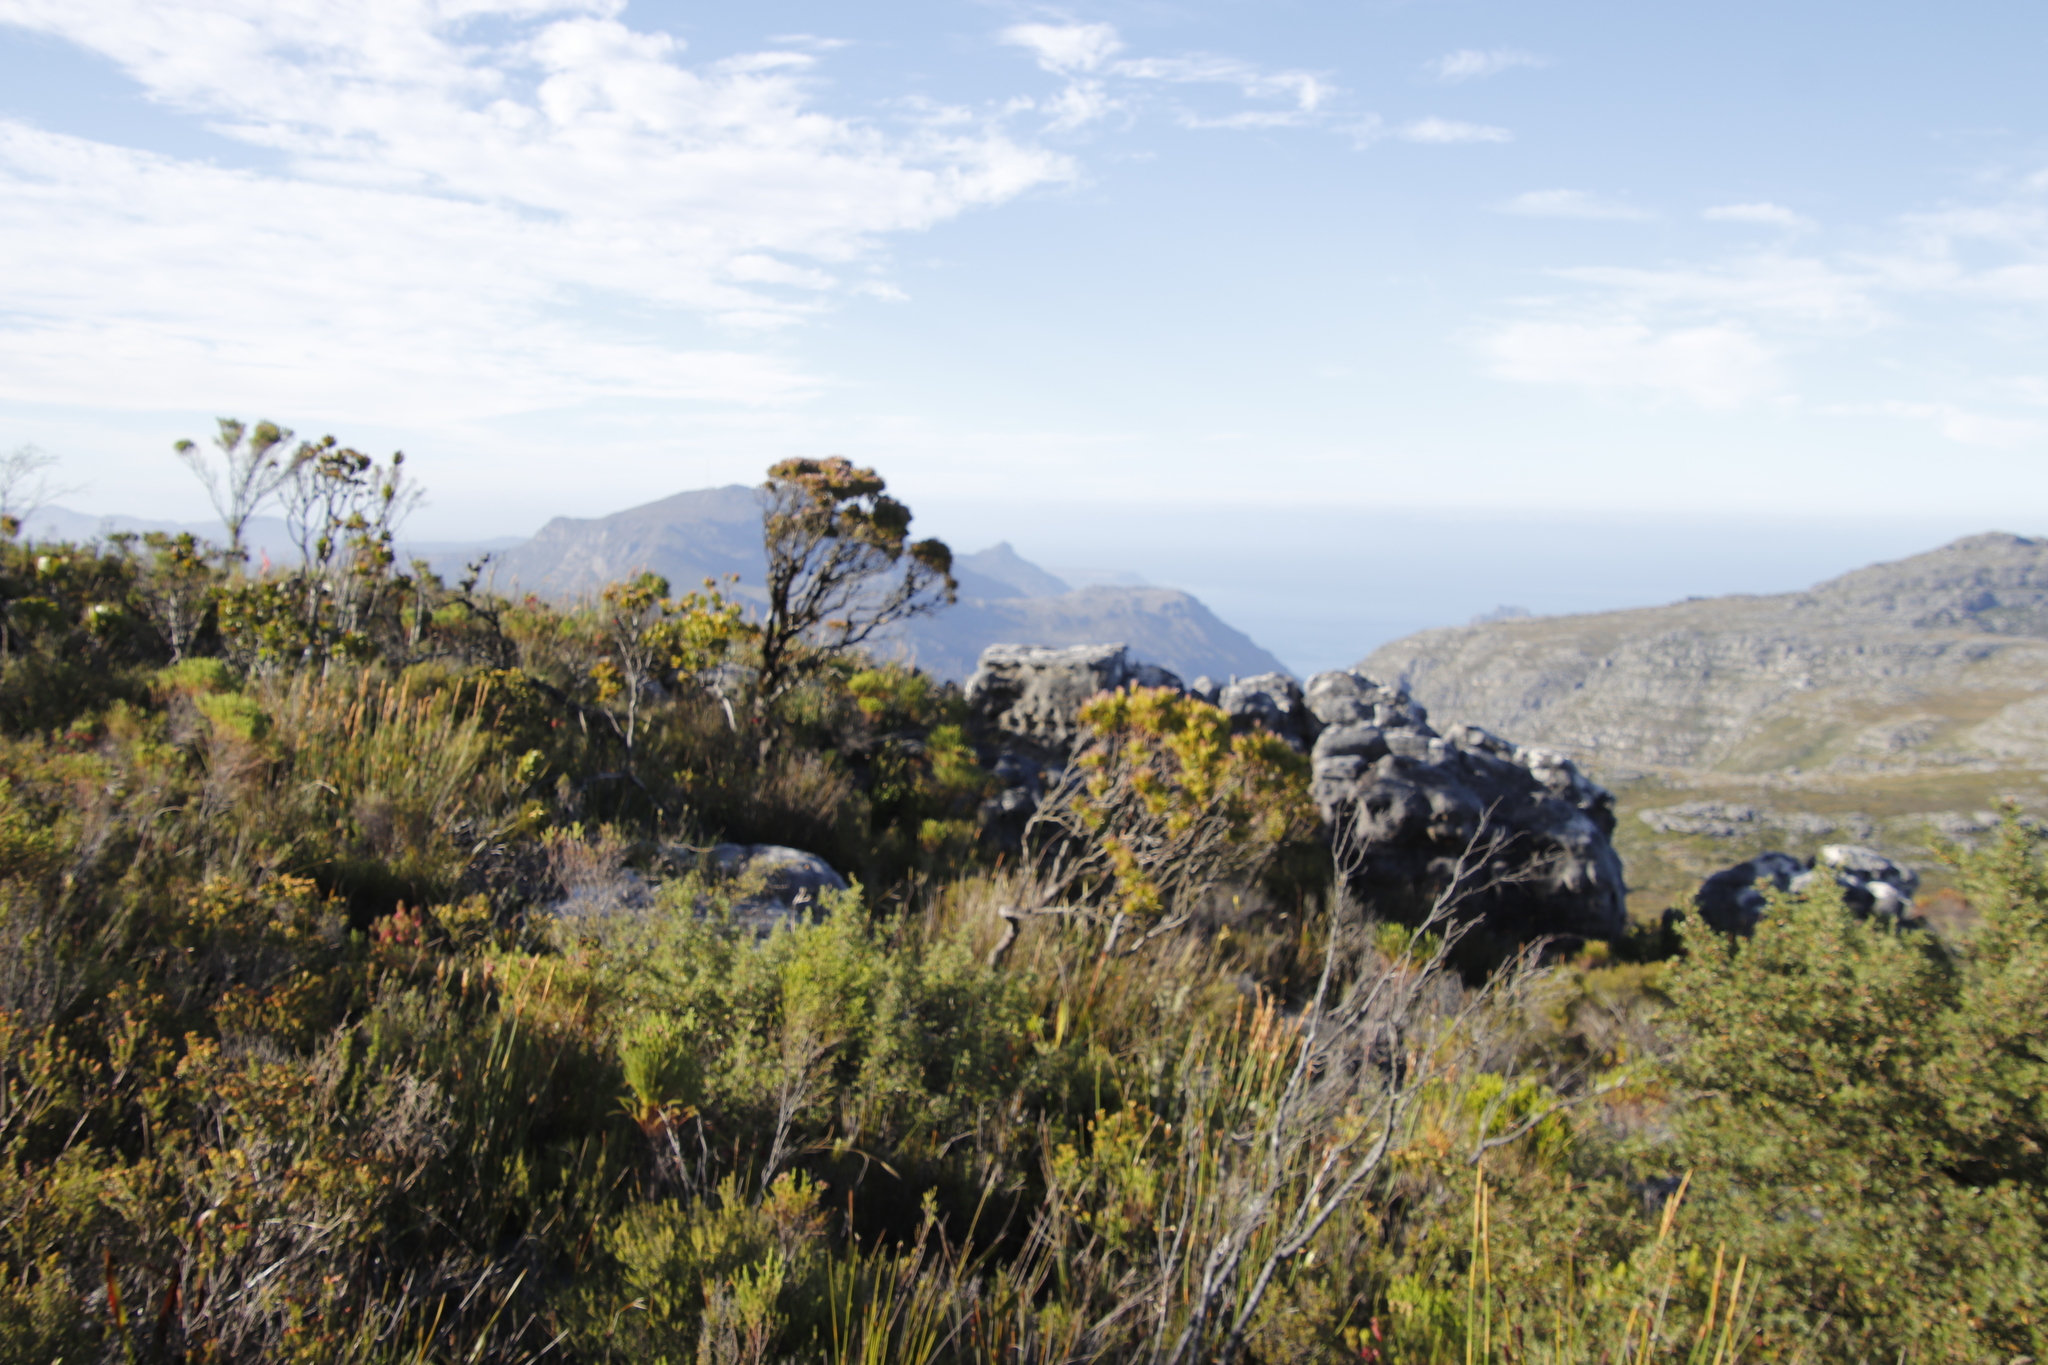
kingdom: Plantae
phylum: Tracheophyta
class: Magnoliopsida
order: Proteales
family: Proteaceae
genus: Leucadendron
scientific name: Leucadendron xanthoconus
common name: Sickle-leaf conebush
